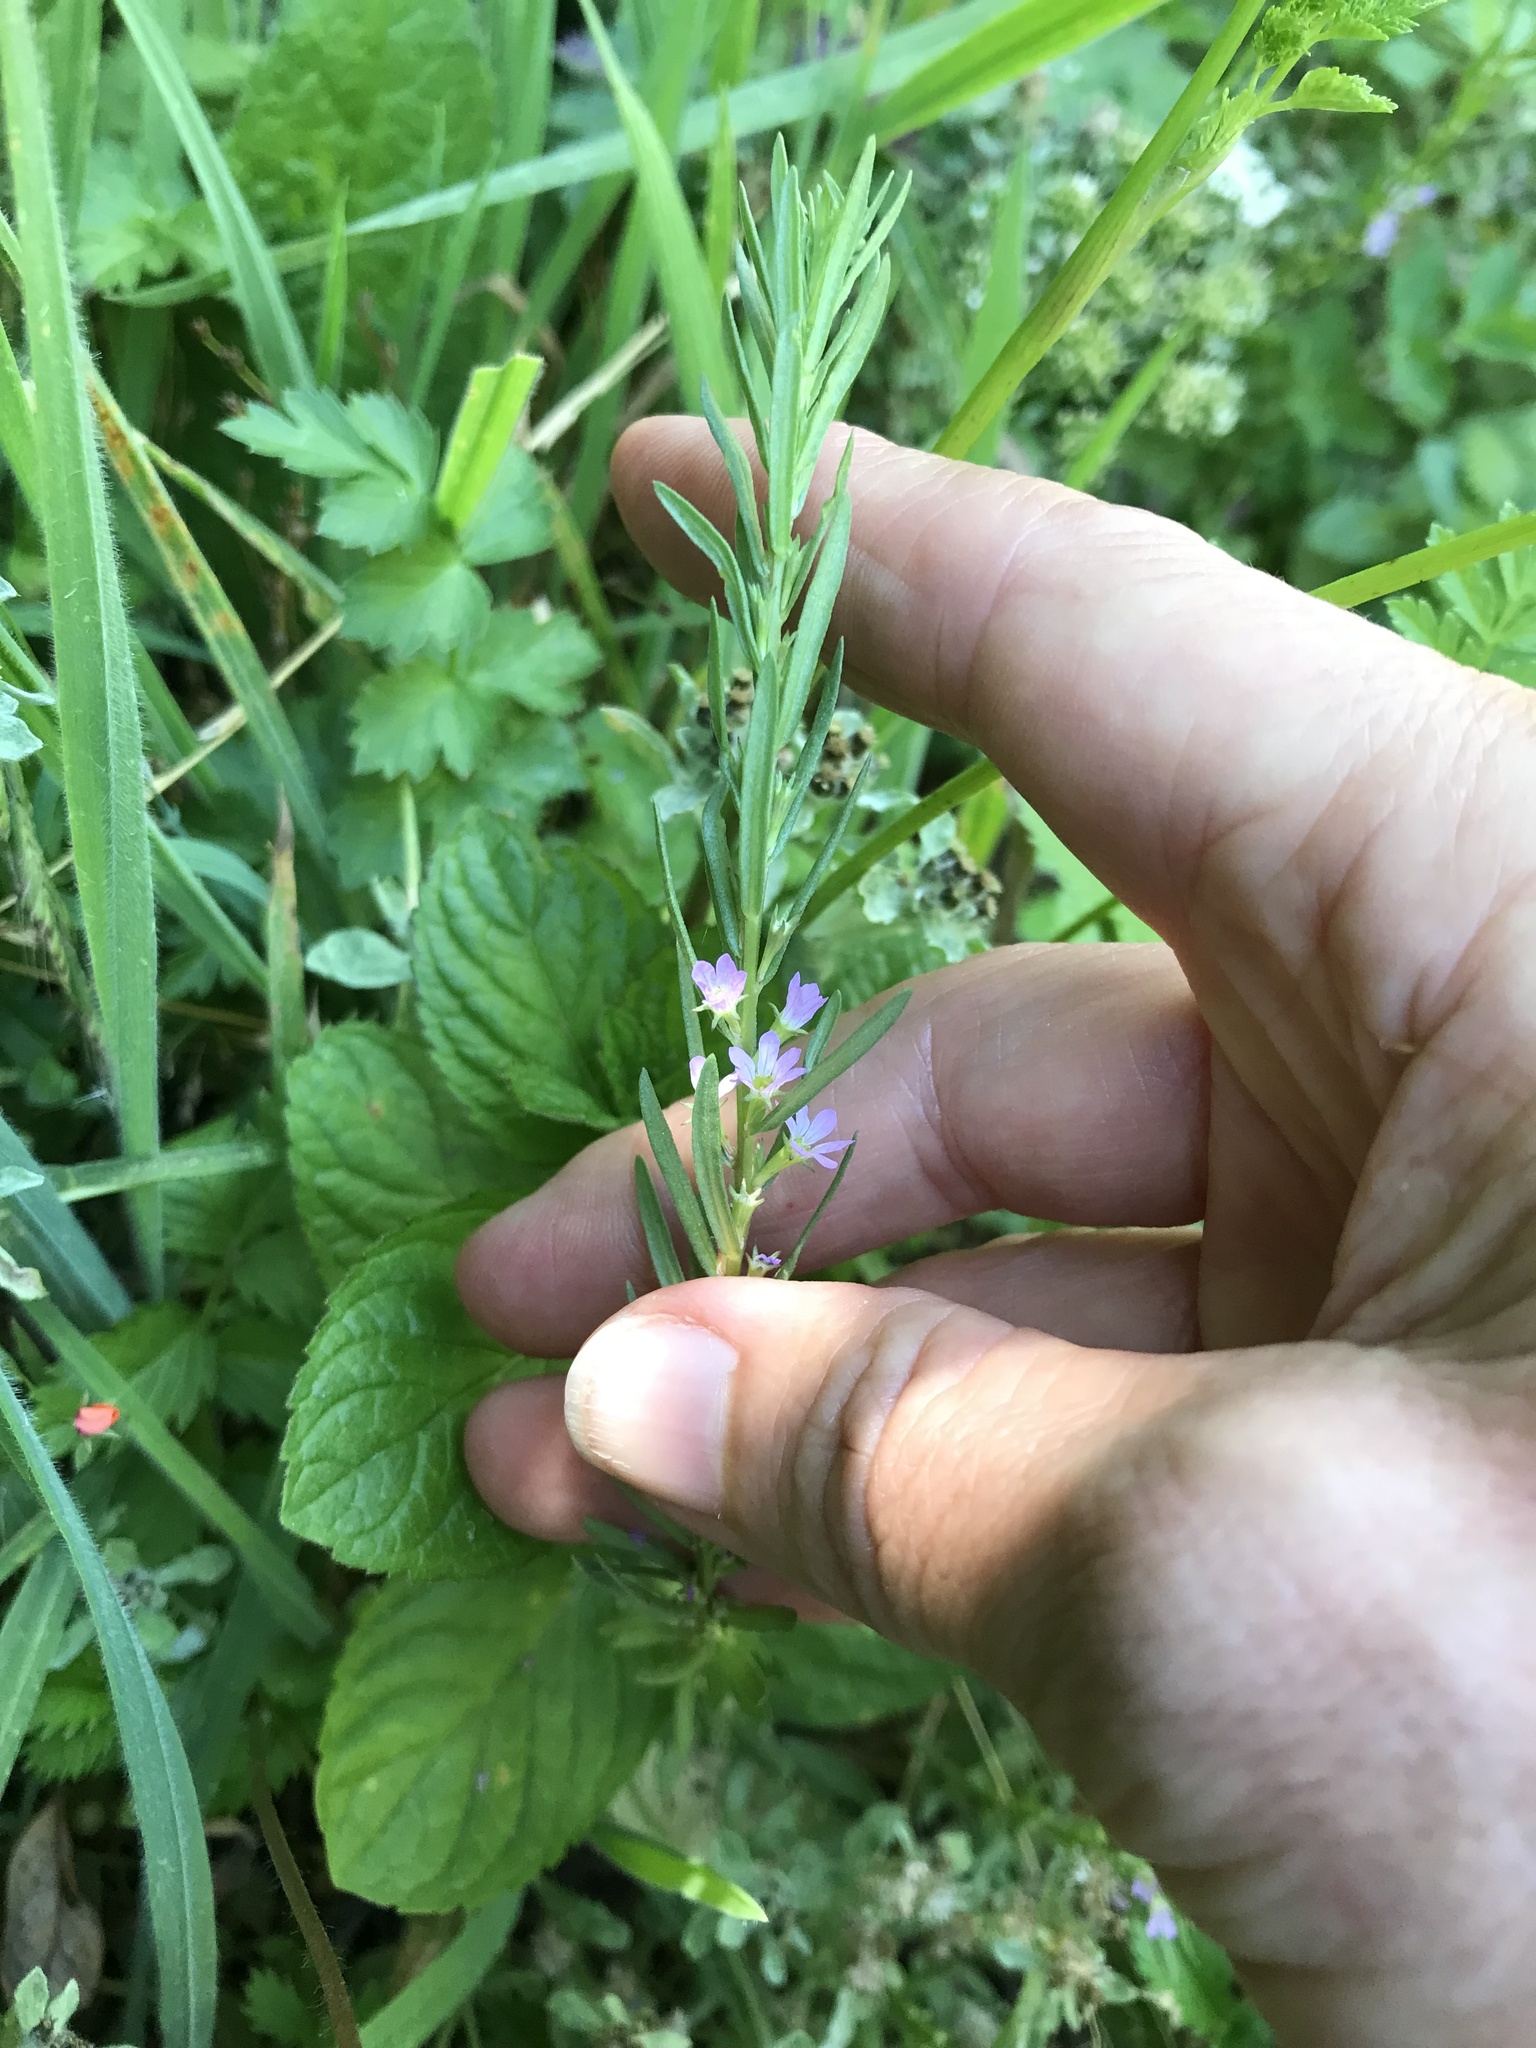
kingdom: Plantae
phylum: Tracheophyta
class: Magnoliopsida
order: Myrtales
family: Lythraceae
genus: Lythrum
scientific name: Lythrum hyssopifolia
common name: Grass-poly
